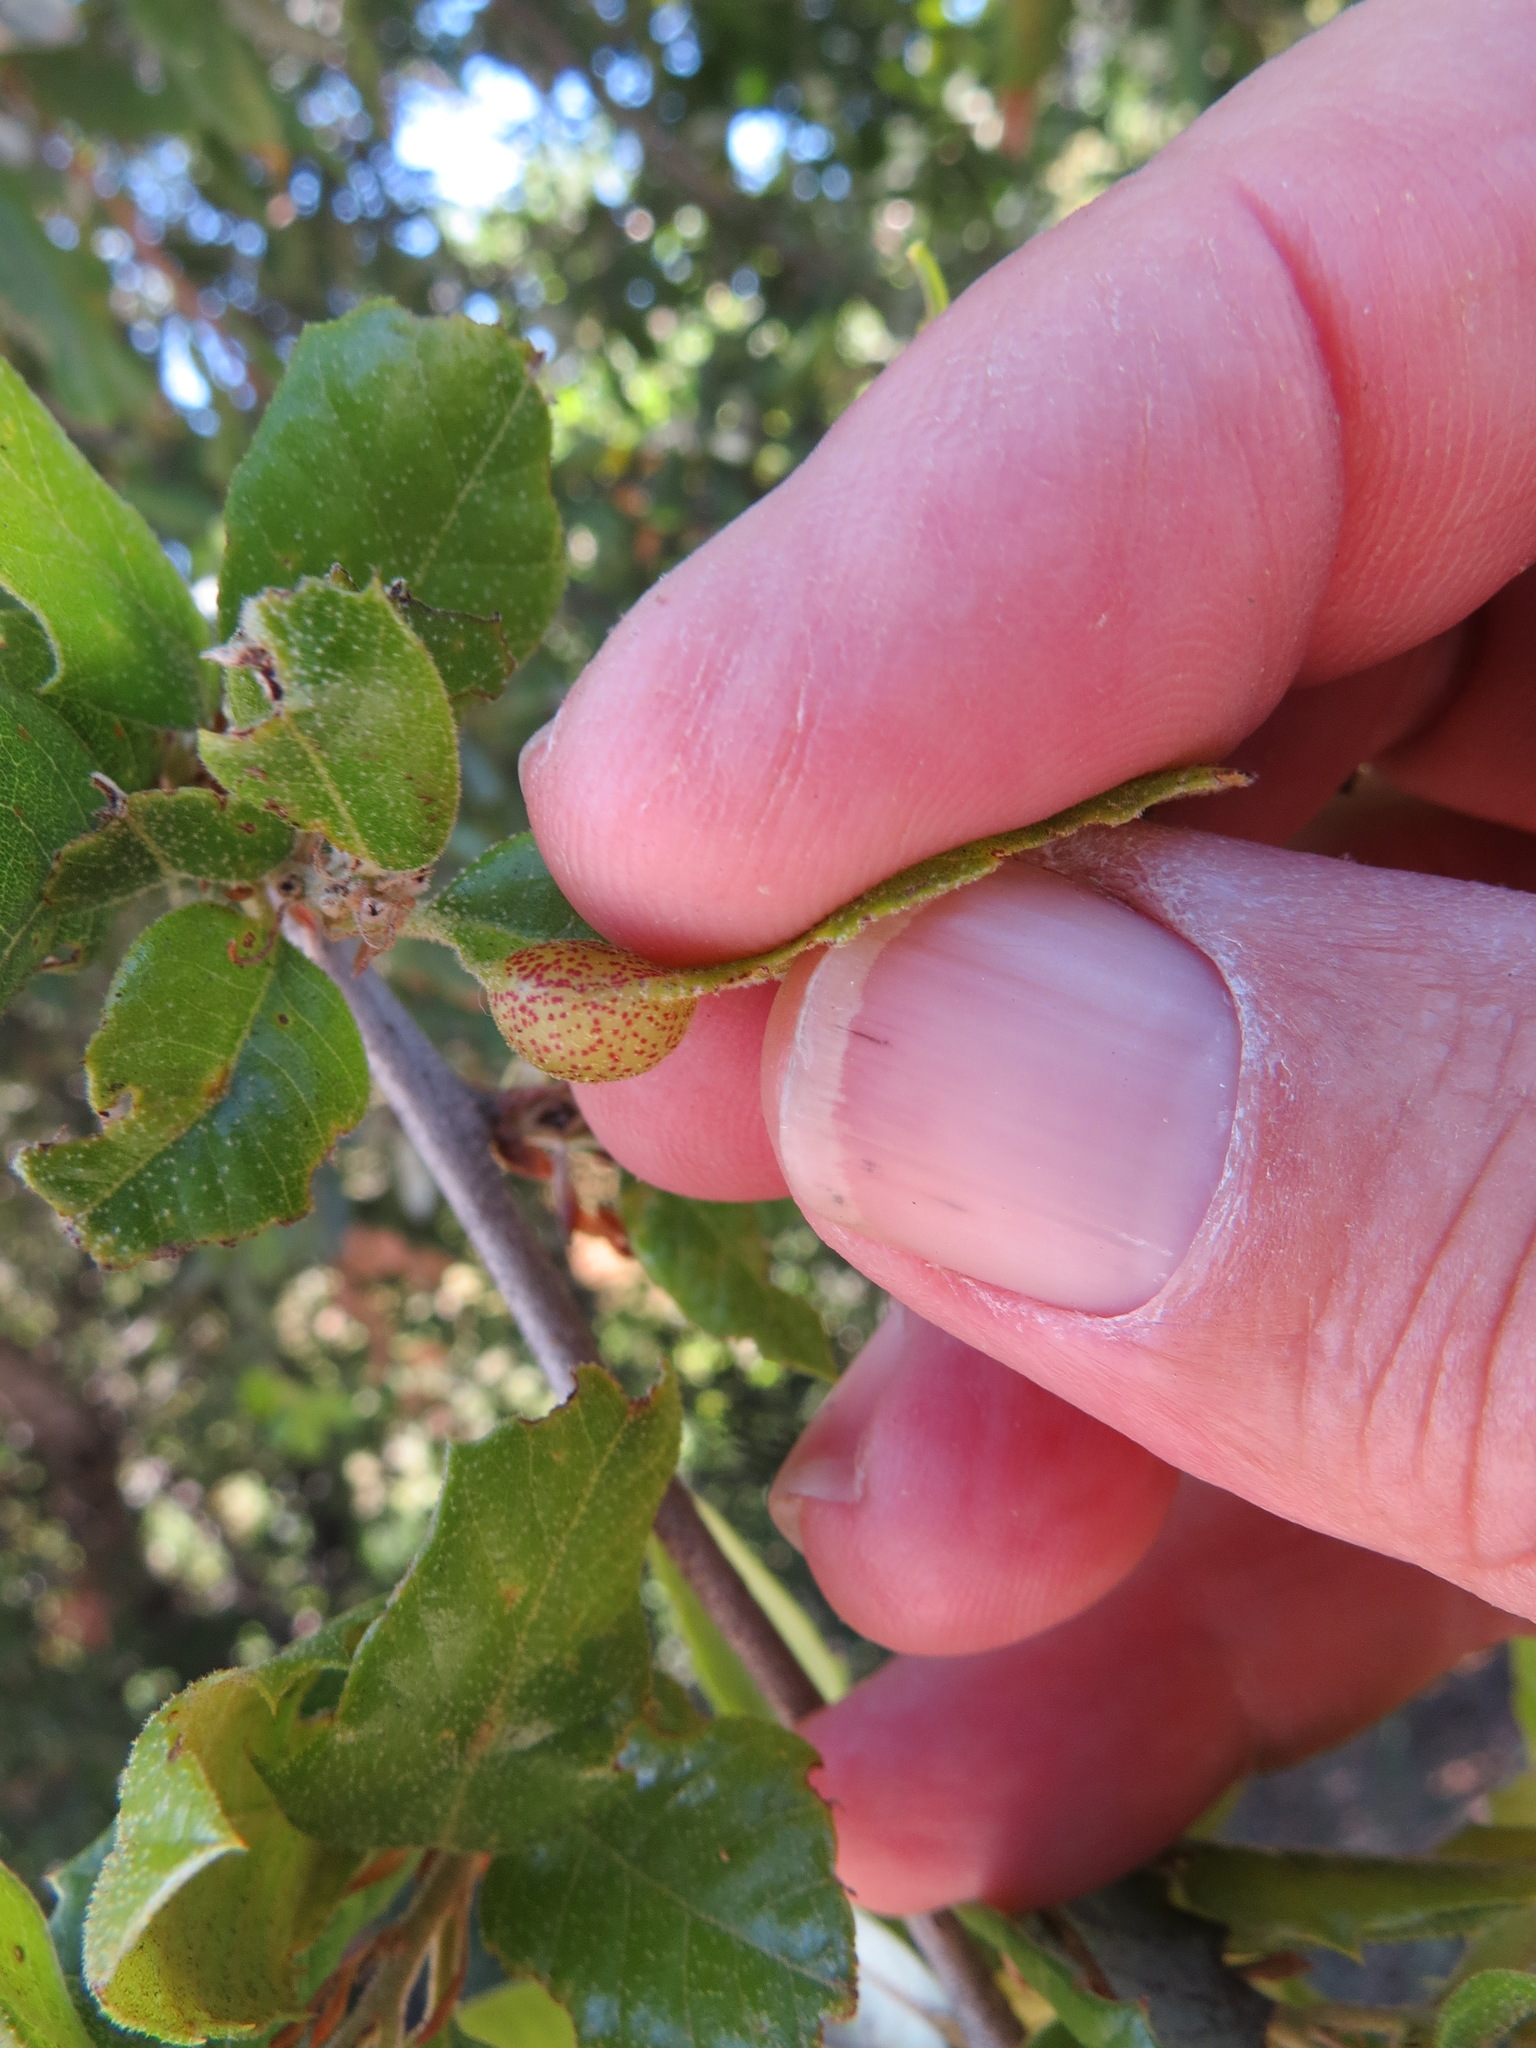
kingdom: Animalia
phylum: Arthropoda
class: Insecta
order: Hymenoptera
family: Cynipidae
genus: Heteroecus
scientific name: Heteroecus
